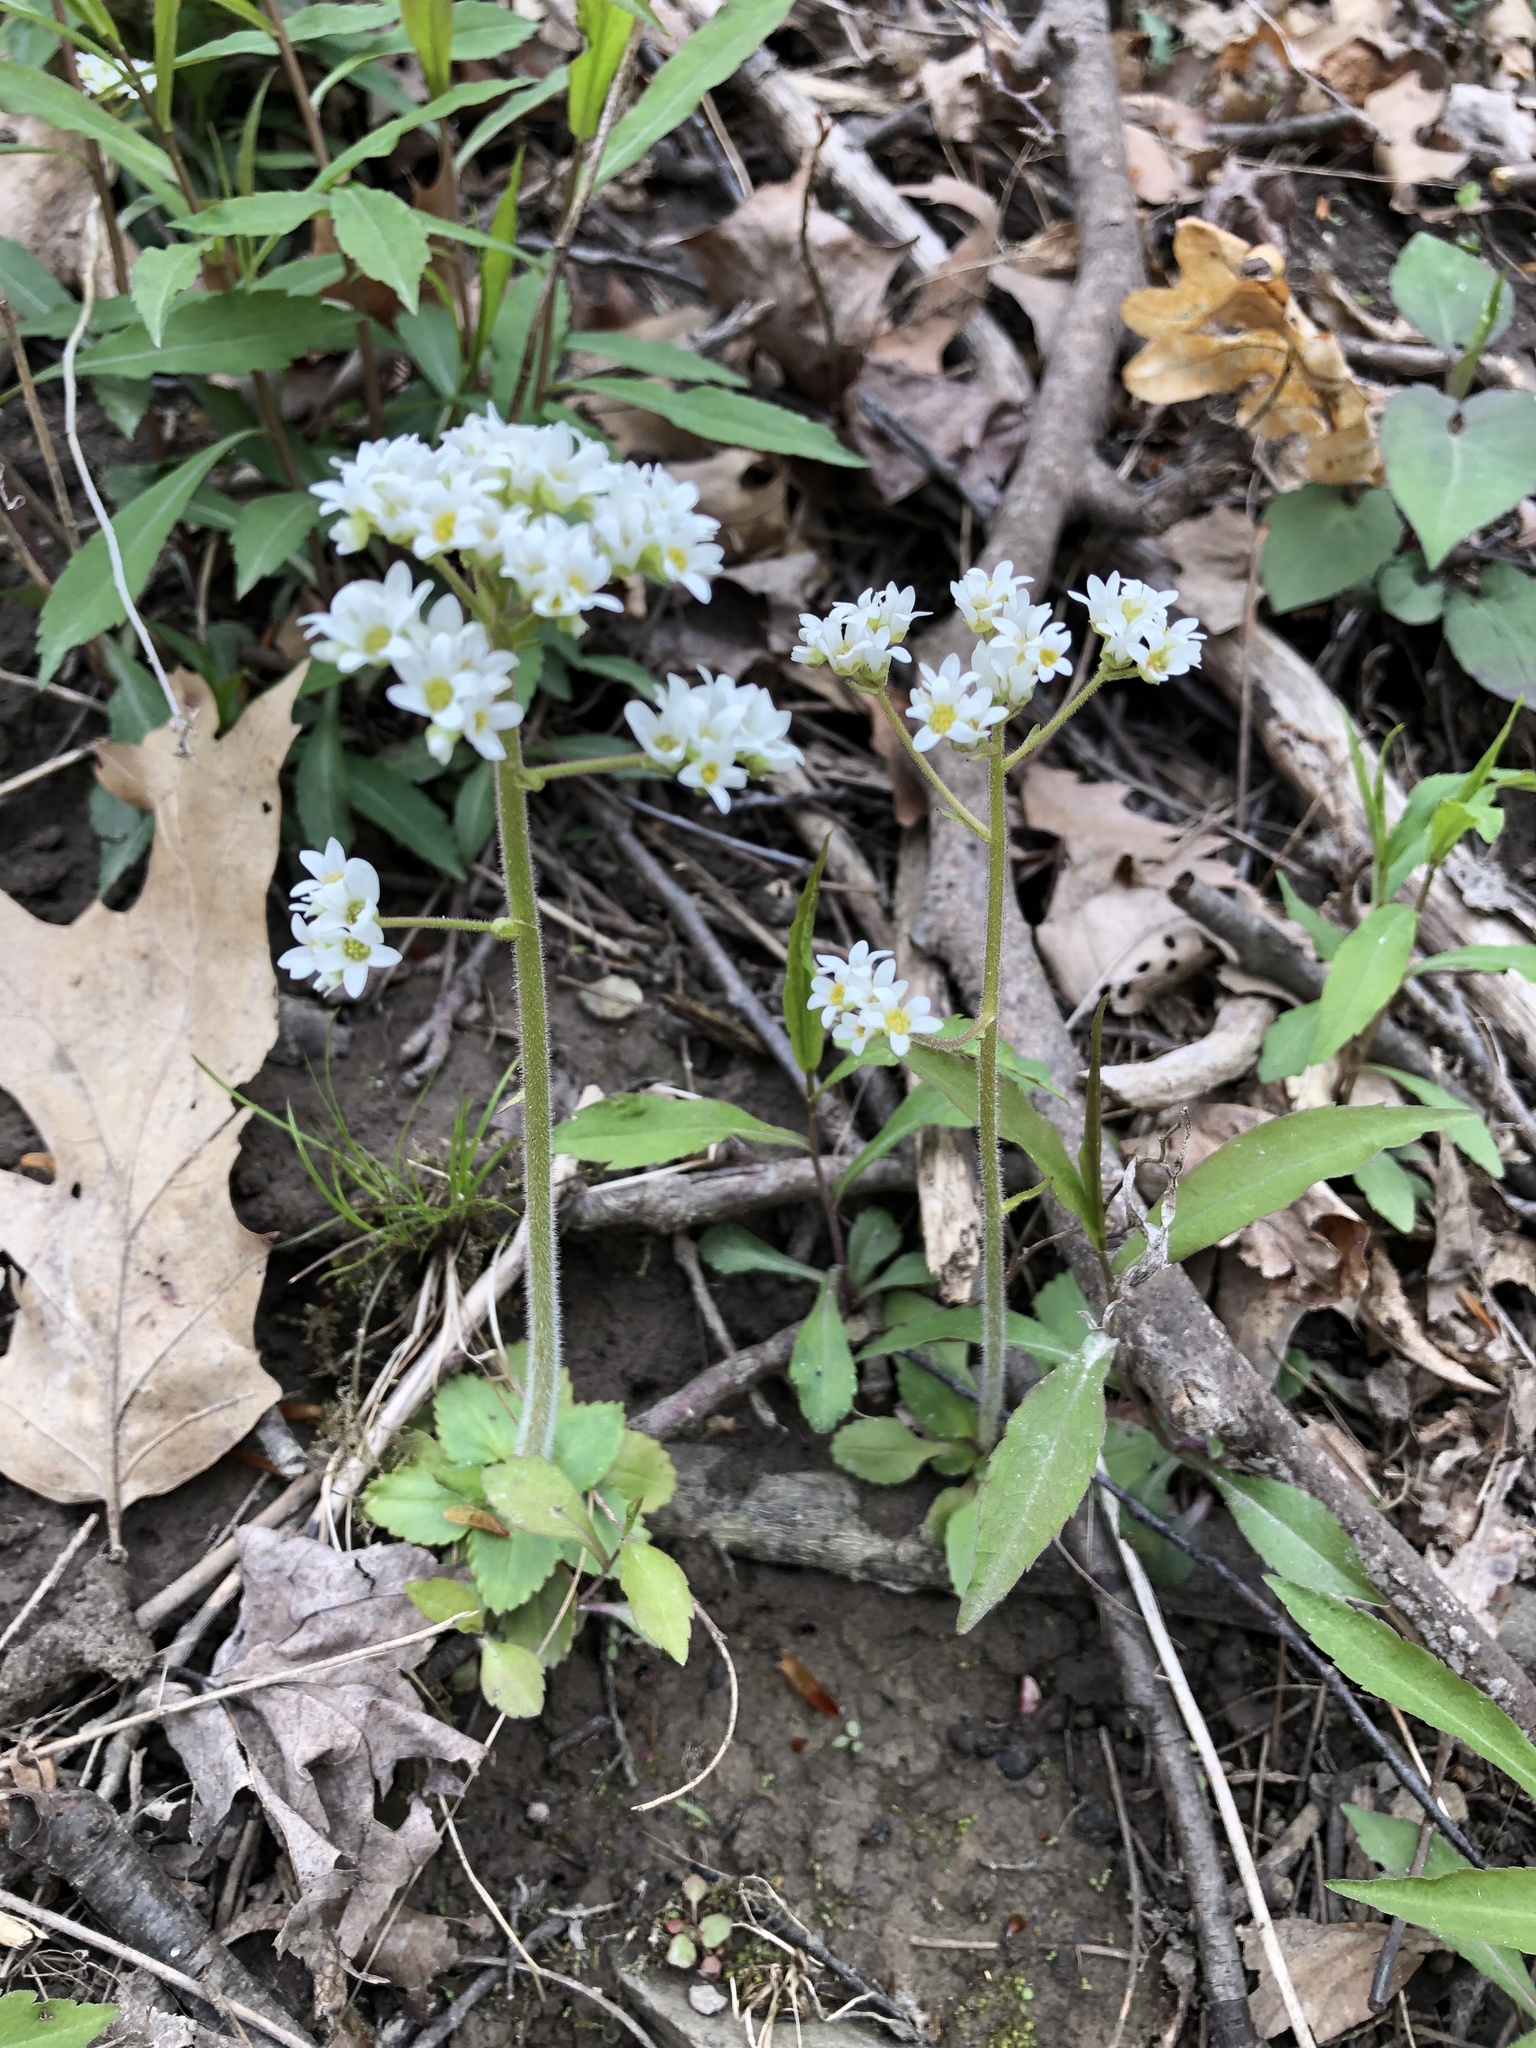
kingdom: Plantae
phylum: Tracheophyta
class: Magnoliopsida
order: Saxifragales
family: Saxifragaceae
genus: Micranthes
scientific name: Micranthes virginiensis
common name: Early saxifrage
